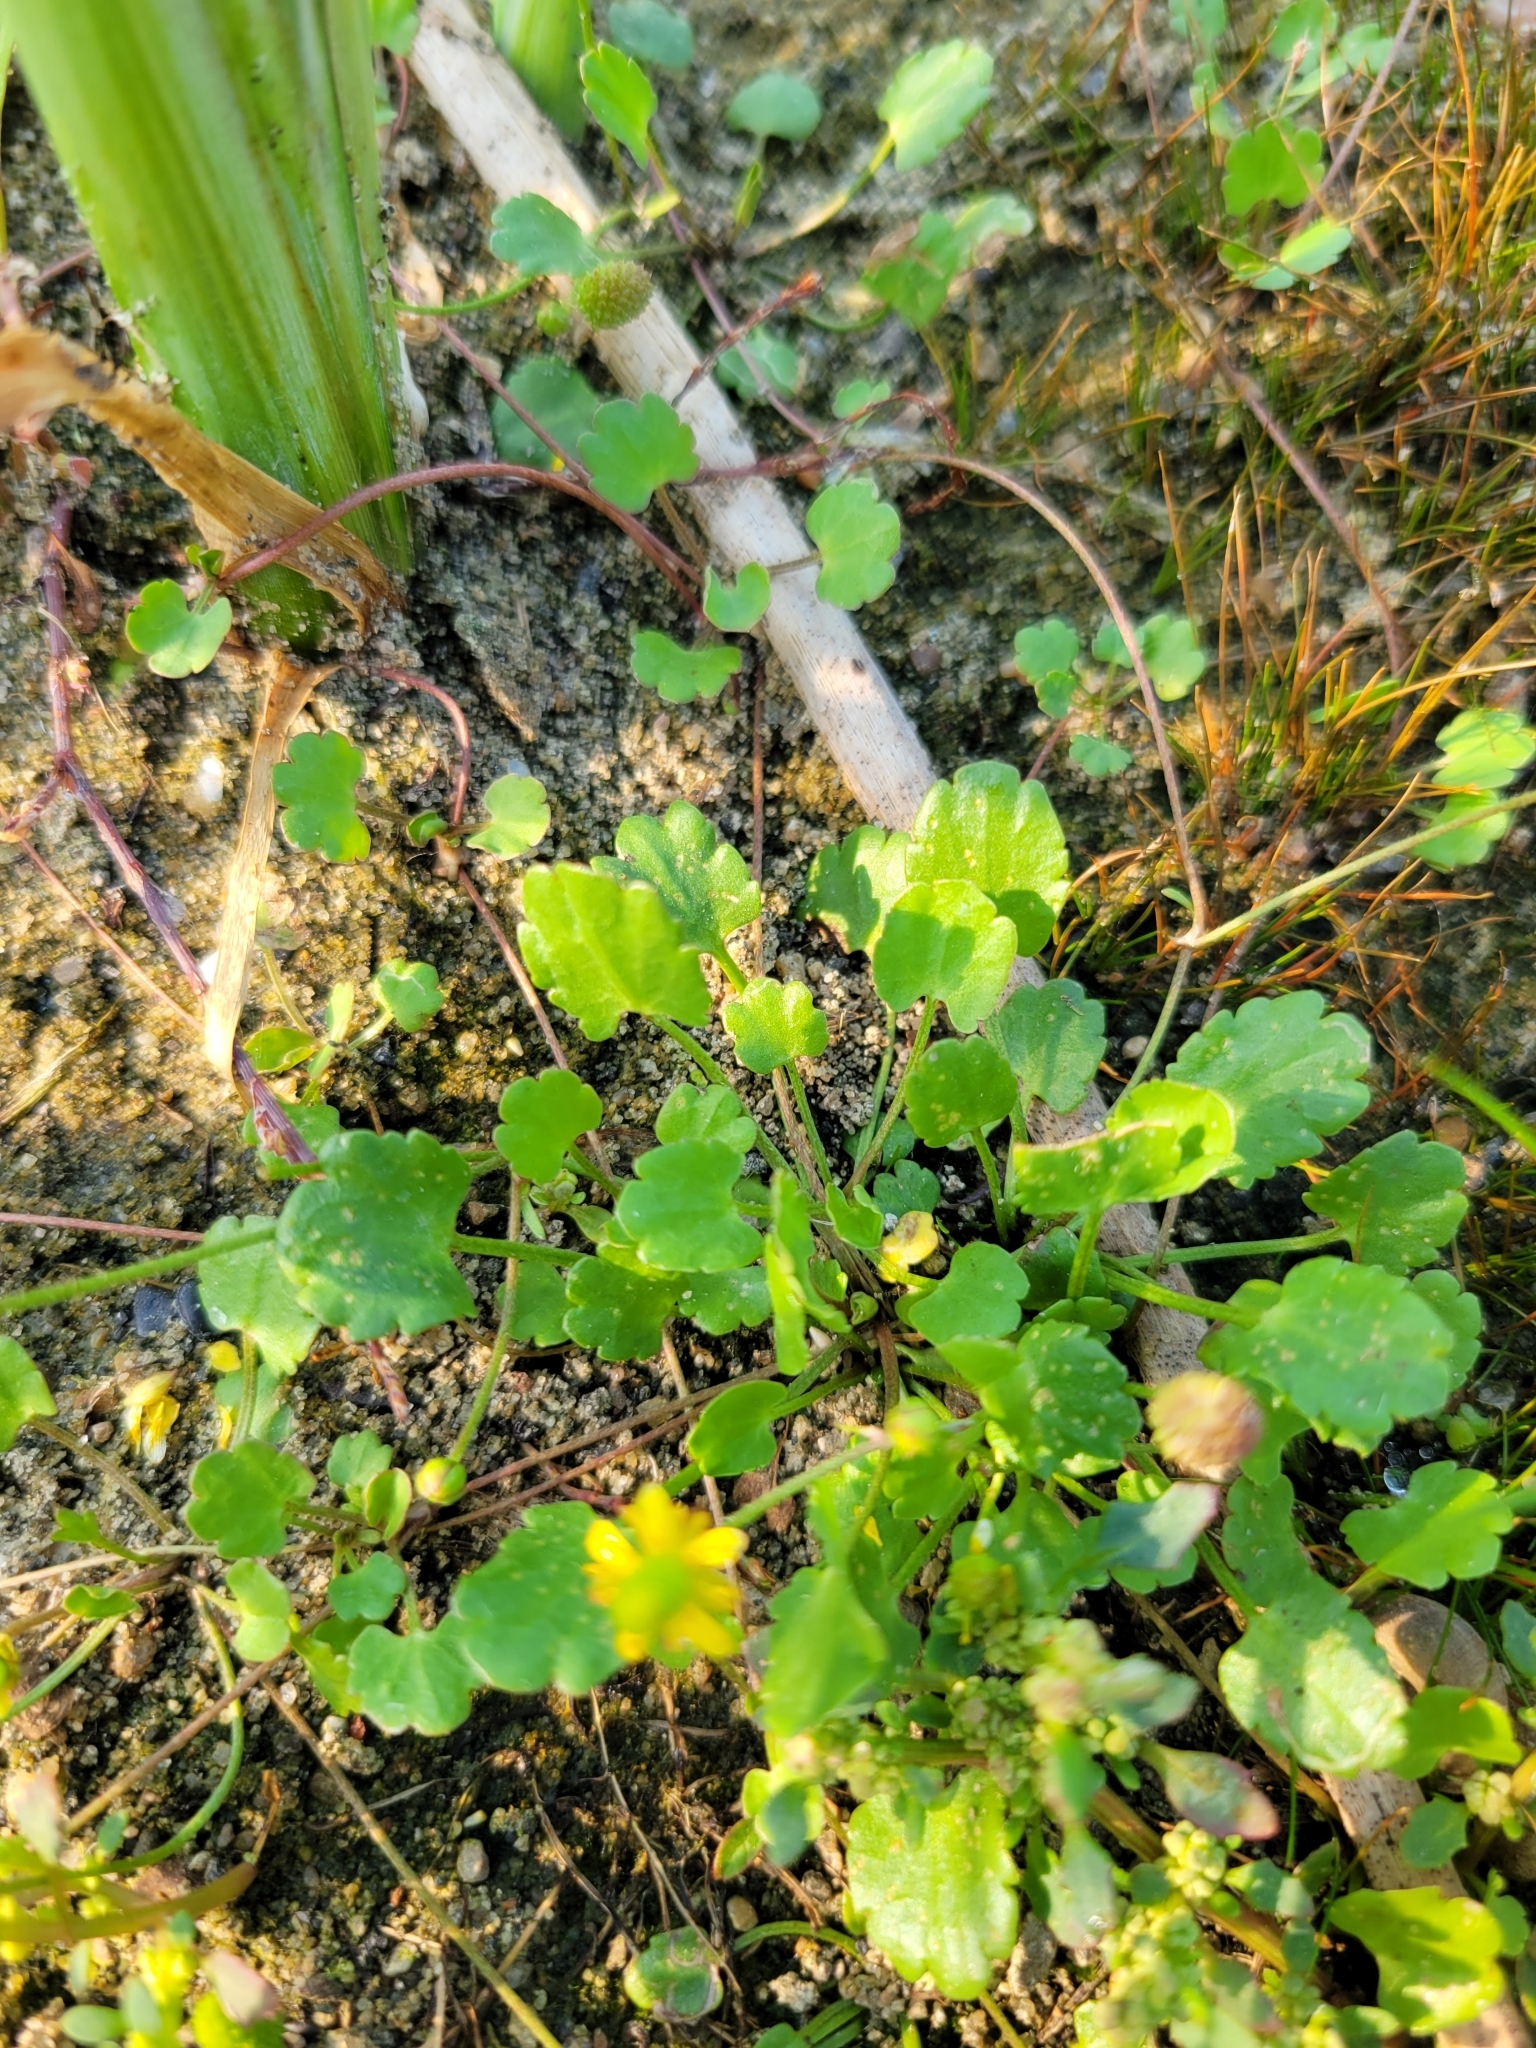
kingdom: Plantae
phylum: Tracheophyta
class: Magnoliopsida
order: Ranunculales
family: Ranunculaceae
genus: Halerpestes
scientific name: Halerpestes cymbalaria
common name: Seaside crowfoot
